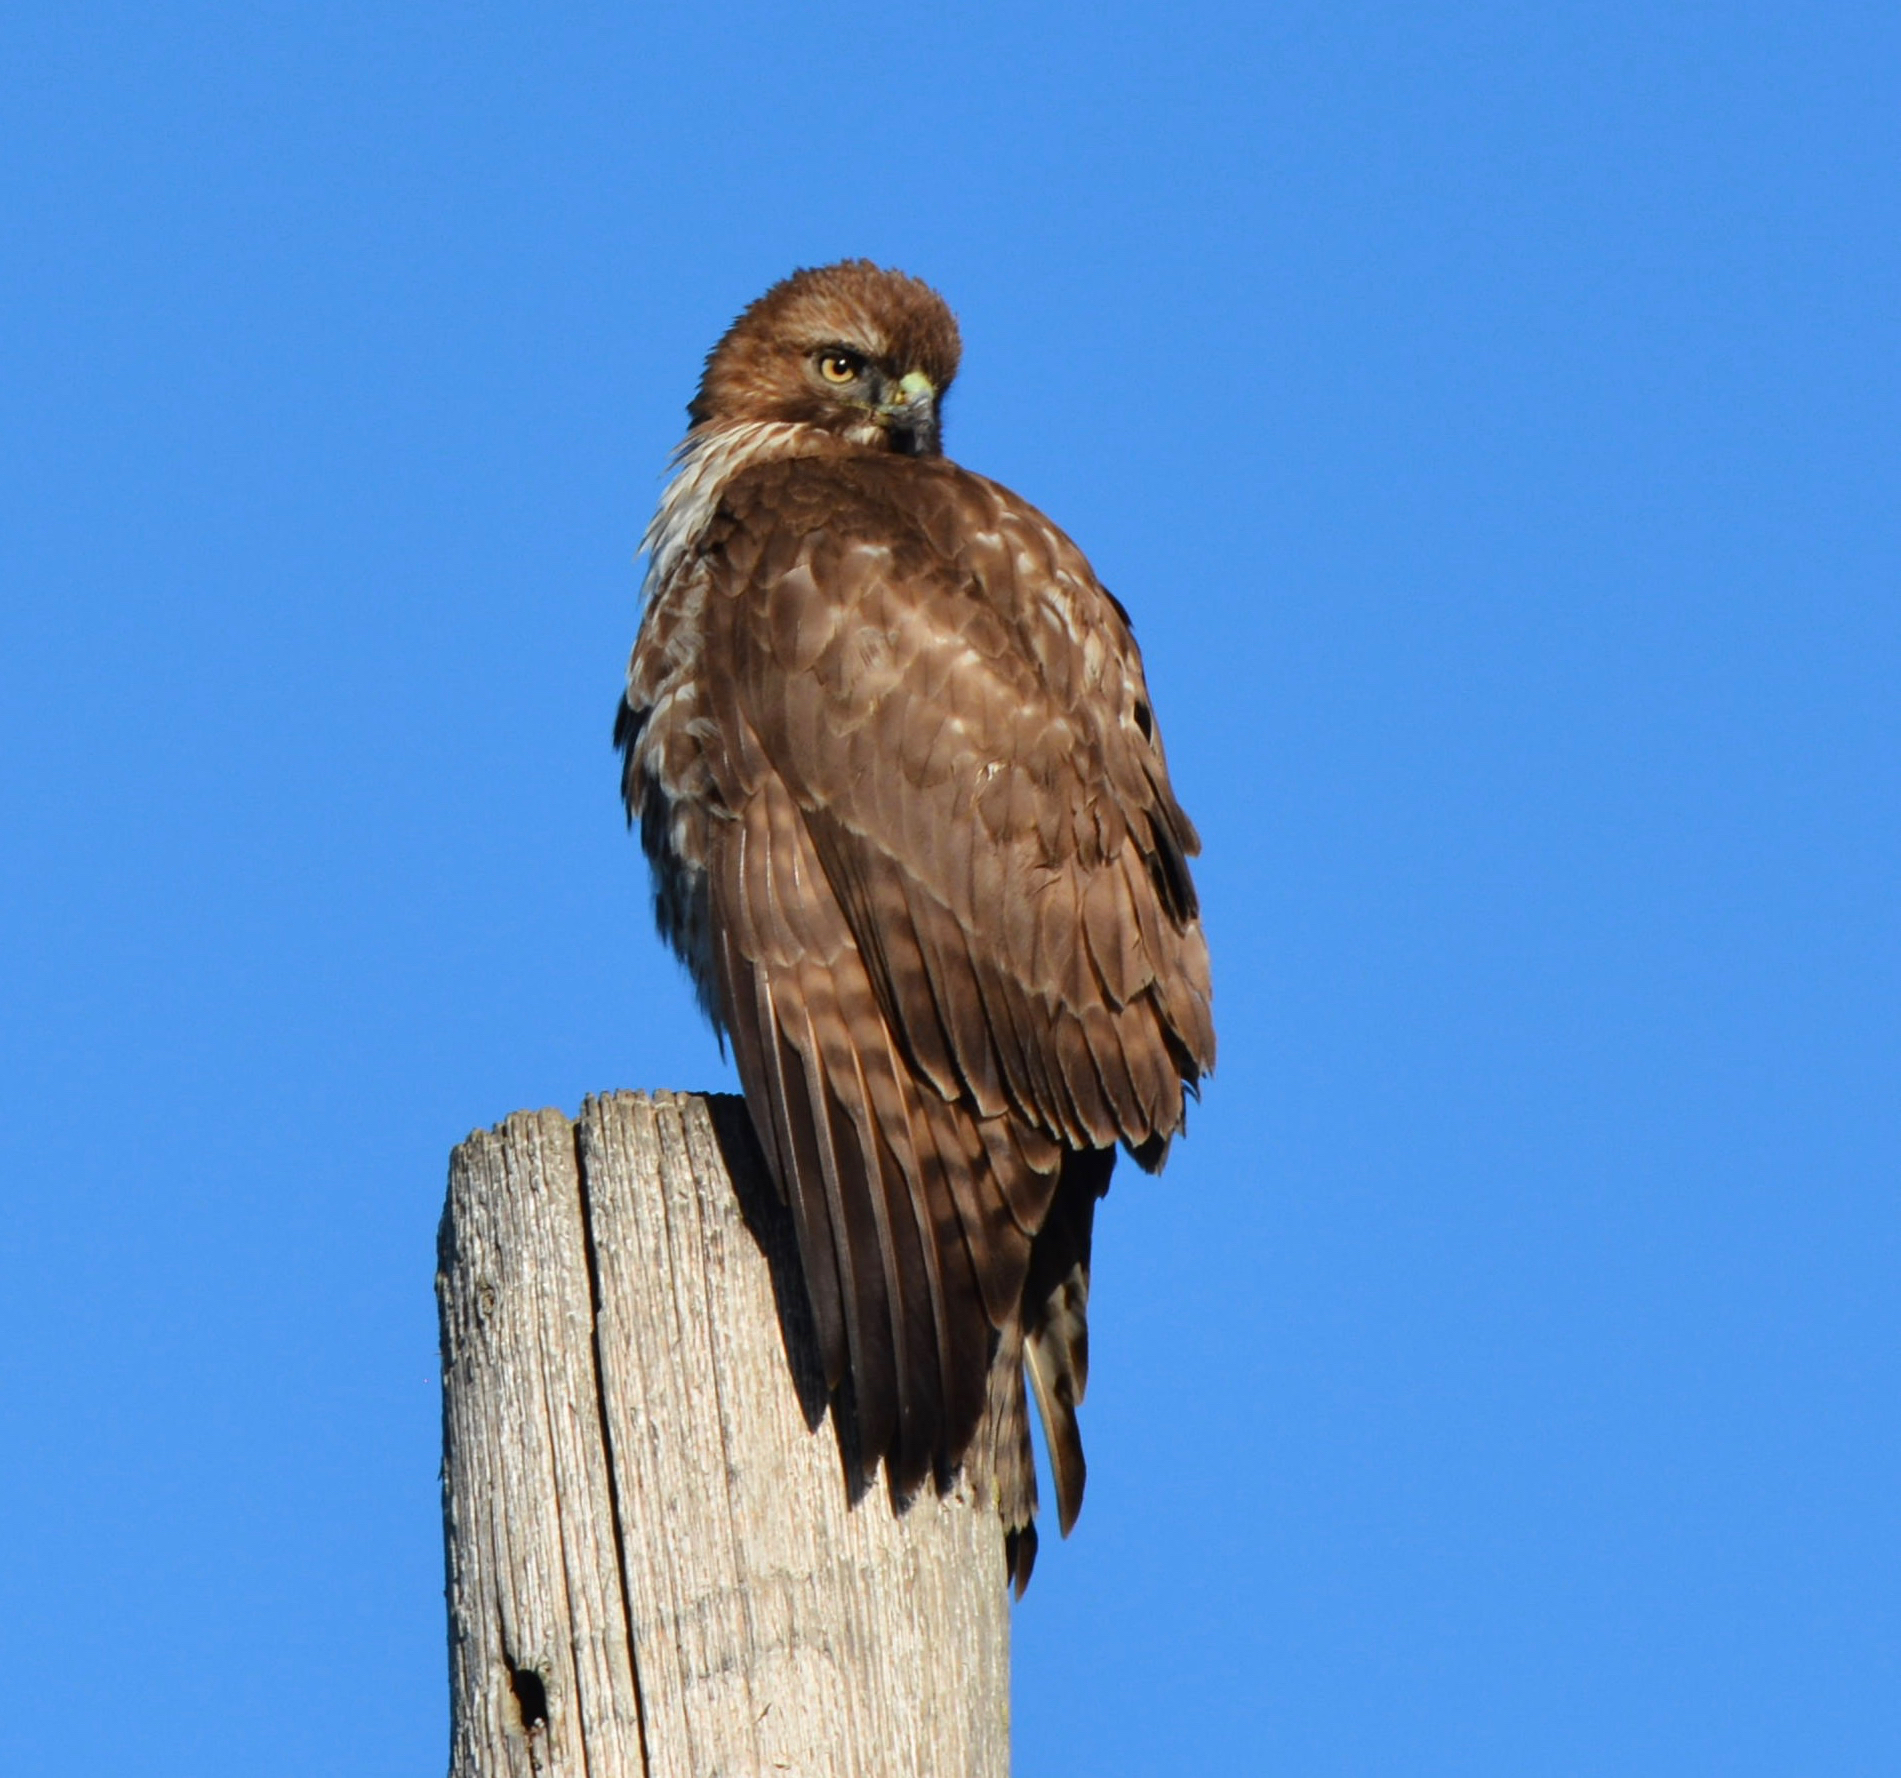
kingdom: Animalia
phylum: Chordata
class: Aves
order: Accipitriformes
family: Accipitridae
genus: Buteo
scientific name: Buteo jamaicensis
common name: Red-tailed hawk
